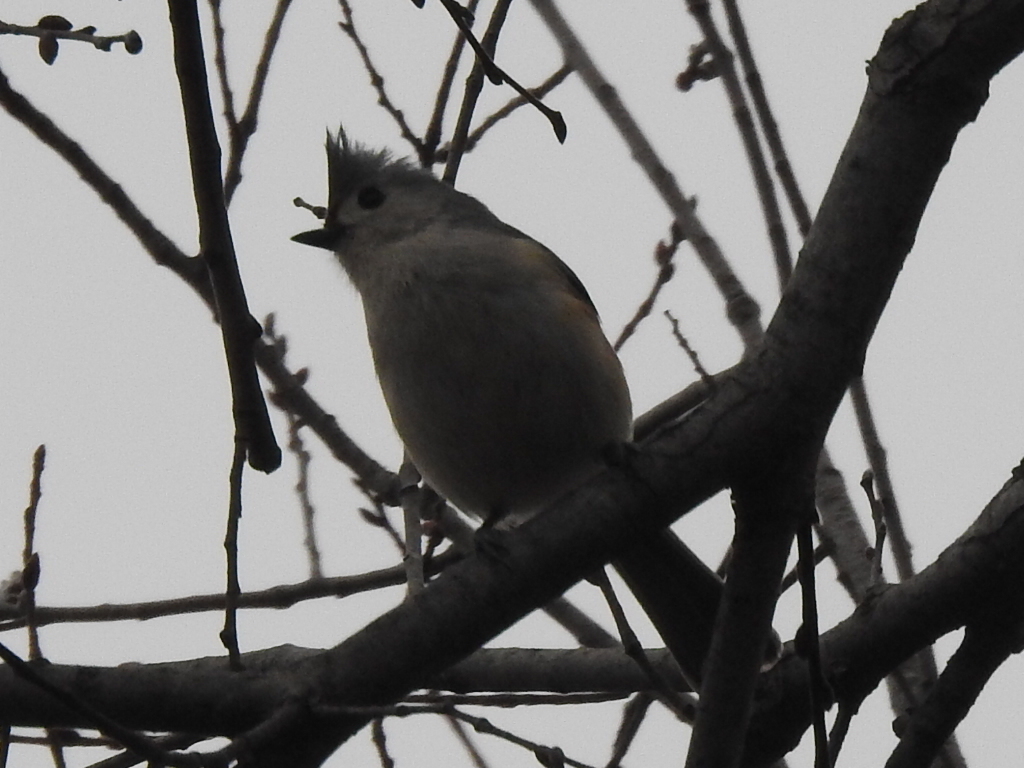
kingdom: Animalia
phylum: Chordata
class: Aves
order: Passeriformes
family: Paridae
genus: Baeolophus
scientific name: Baeolophus bicolor
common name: Tufted titmouse
